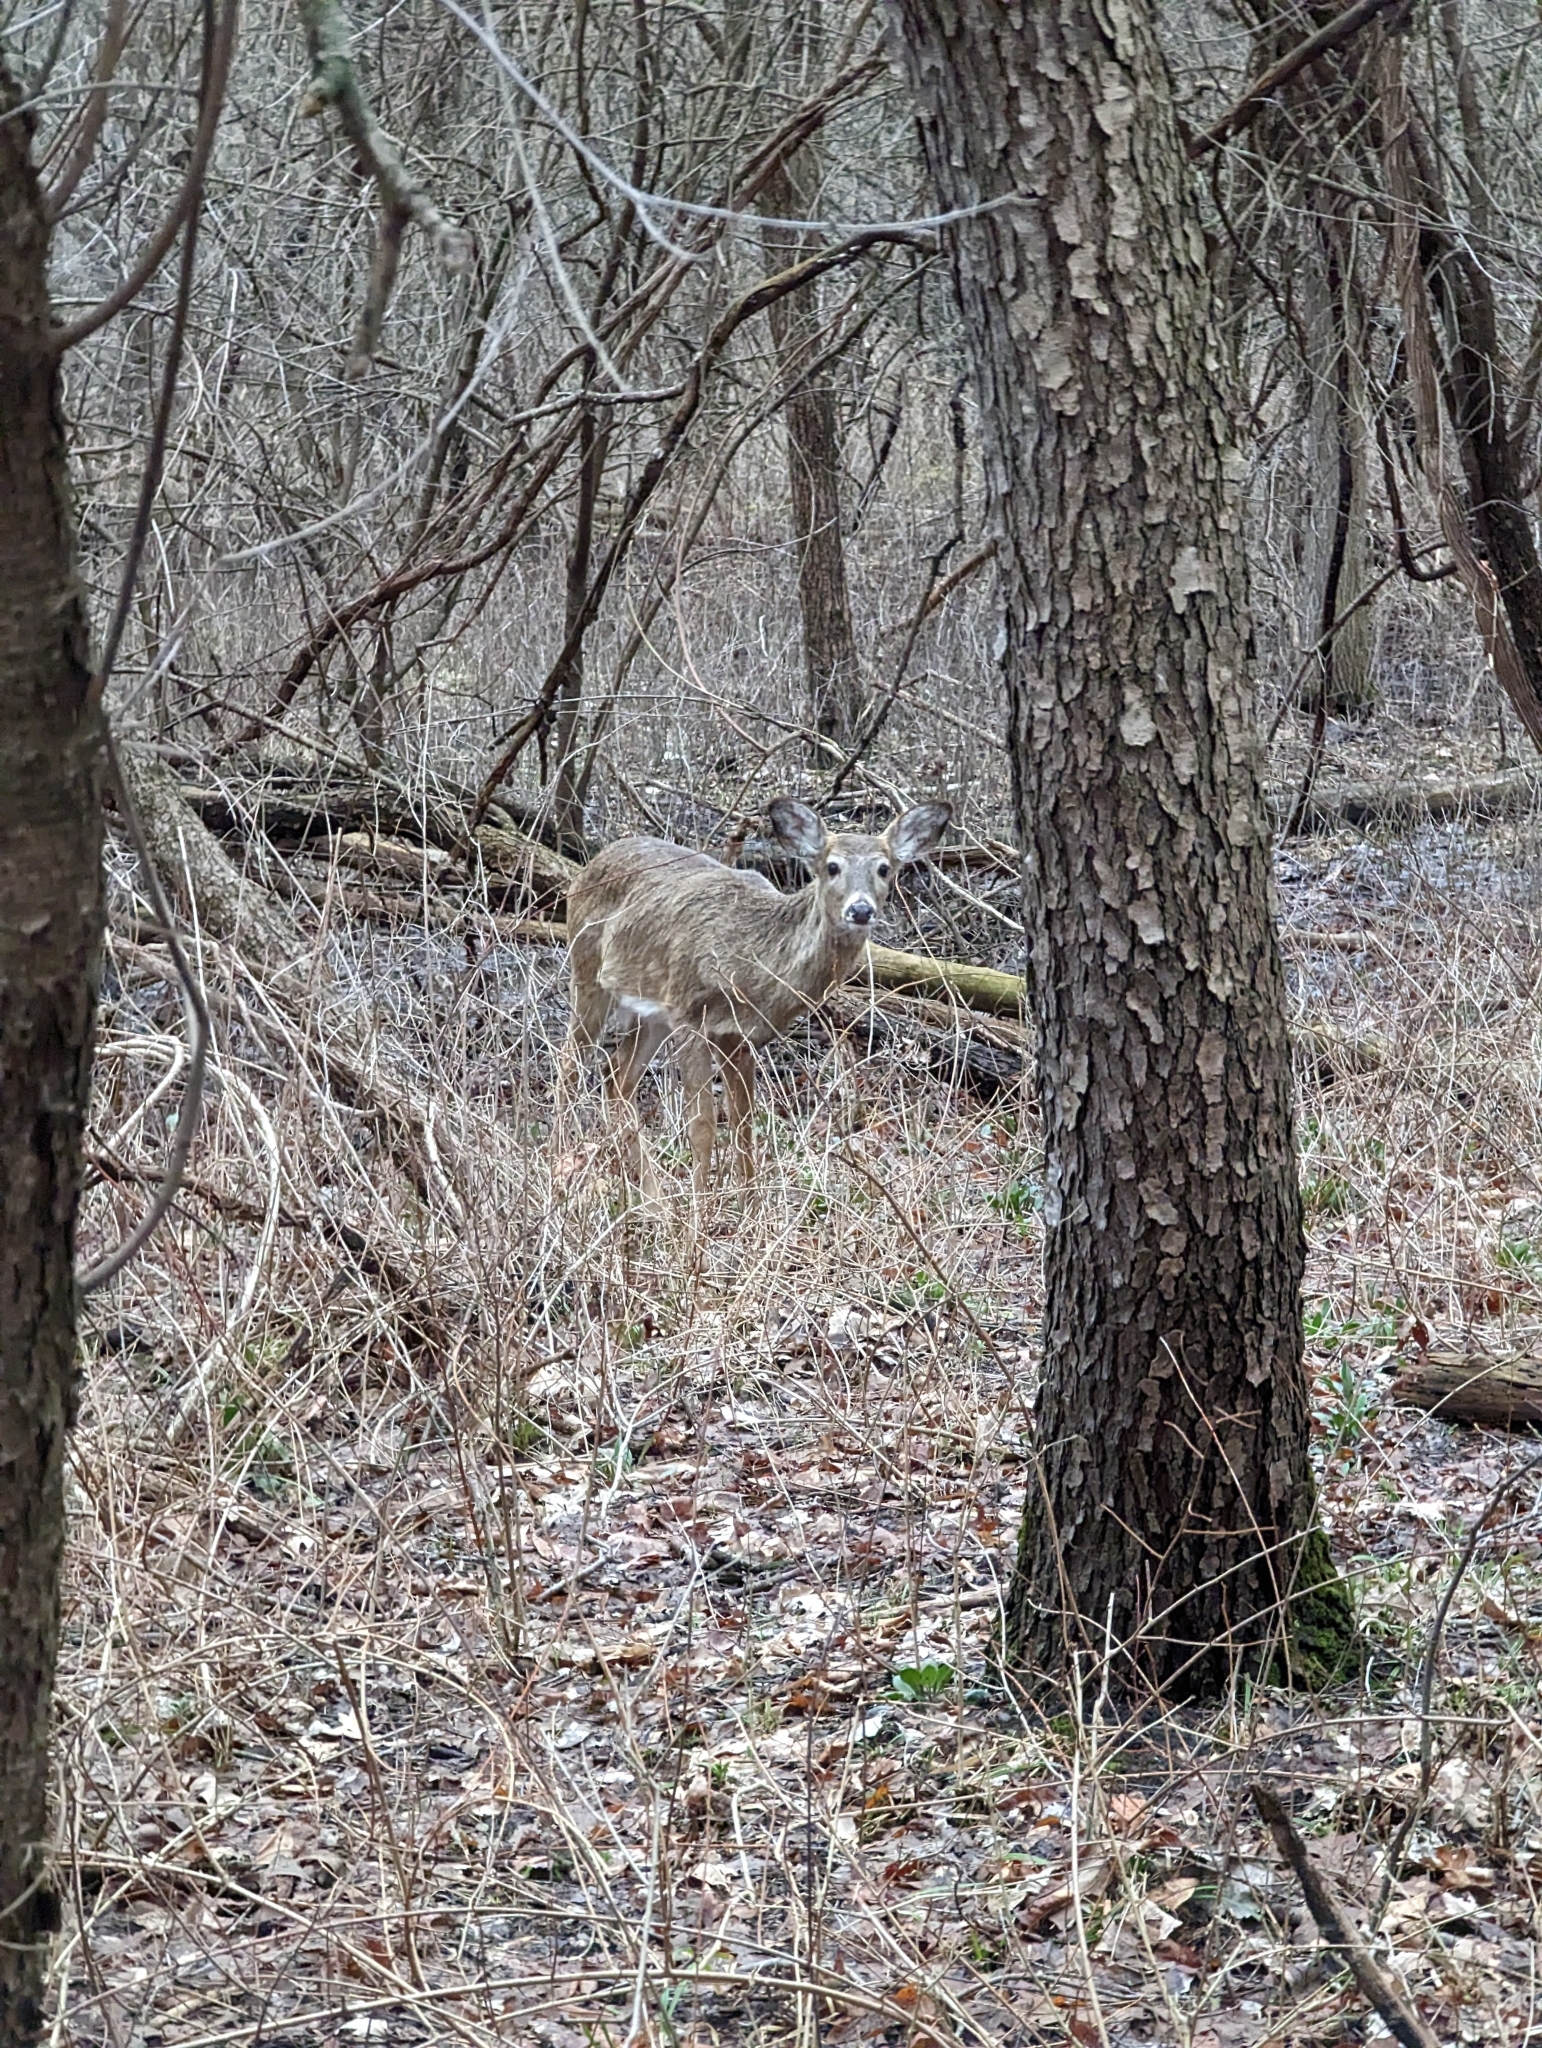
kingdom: Animalia
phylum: Chordata
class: Mammalia
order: Artiodactyla
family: Cervidae
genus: Odocoileus
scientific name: Odocoileus virginianus
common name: White-tailed deer
